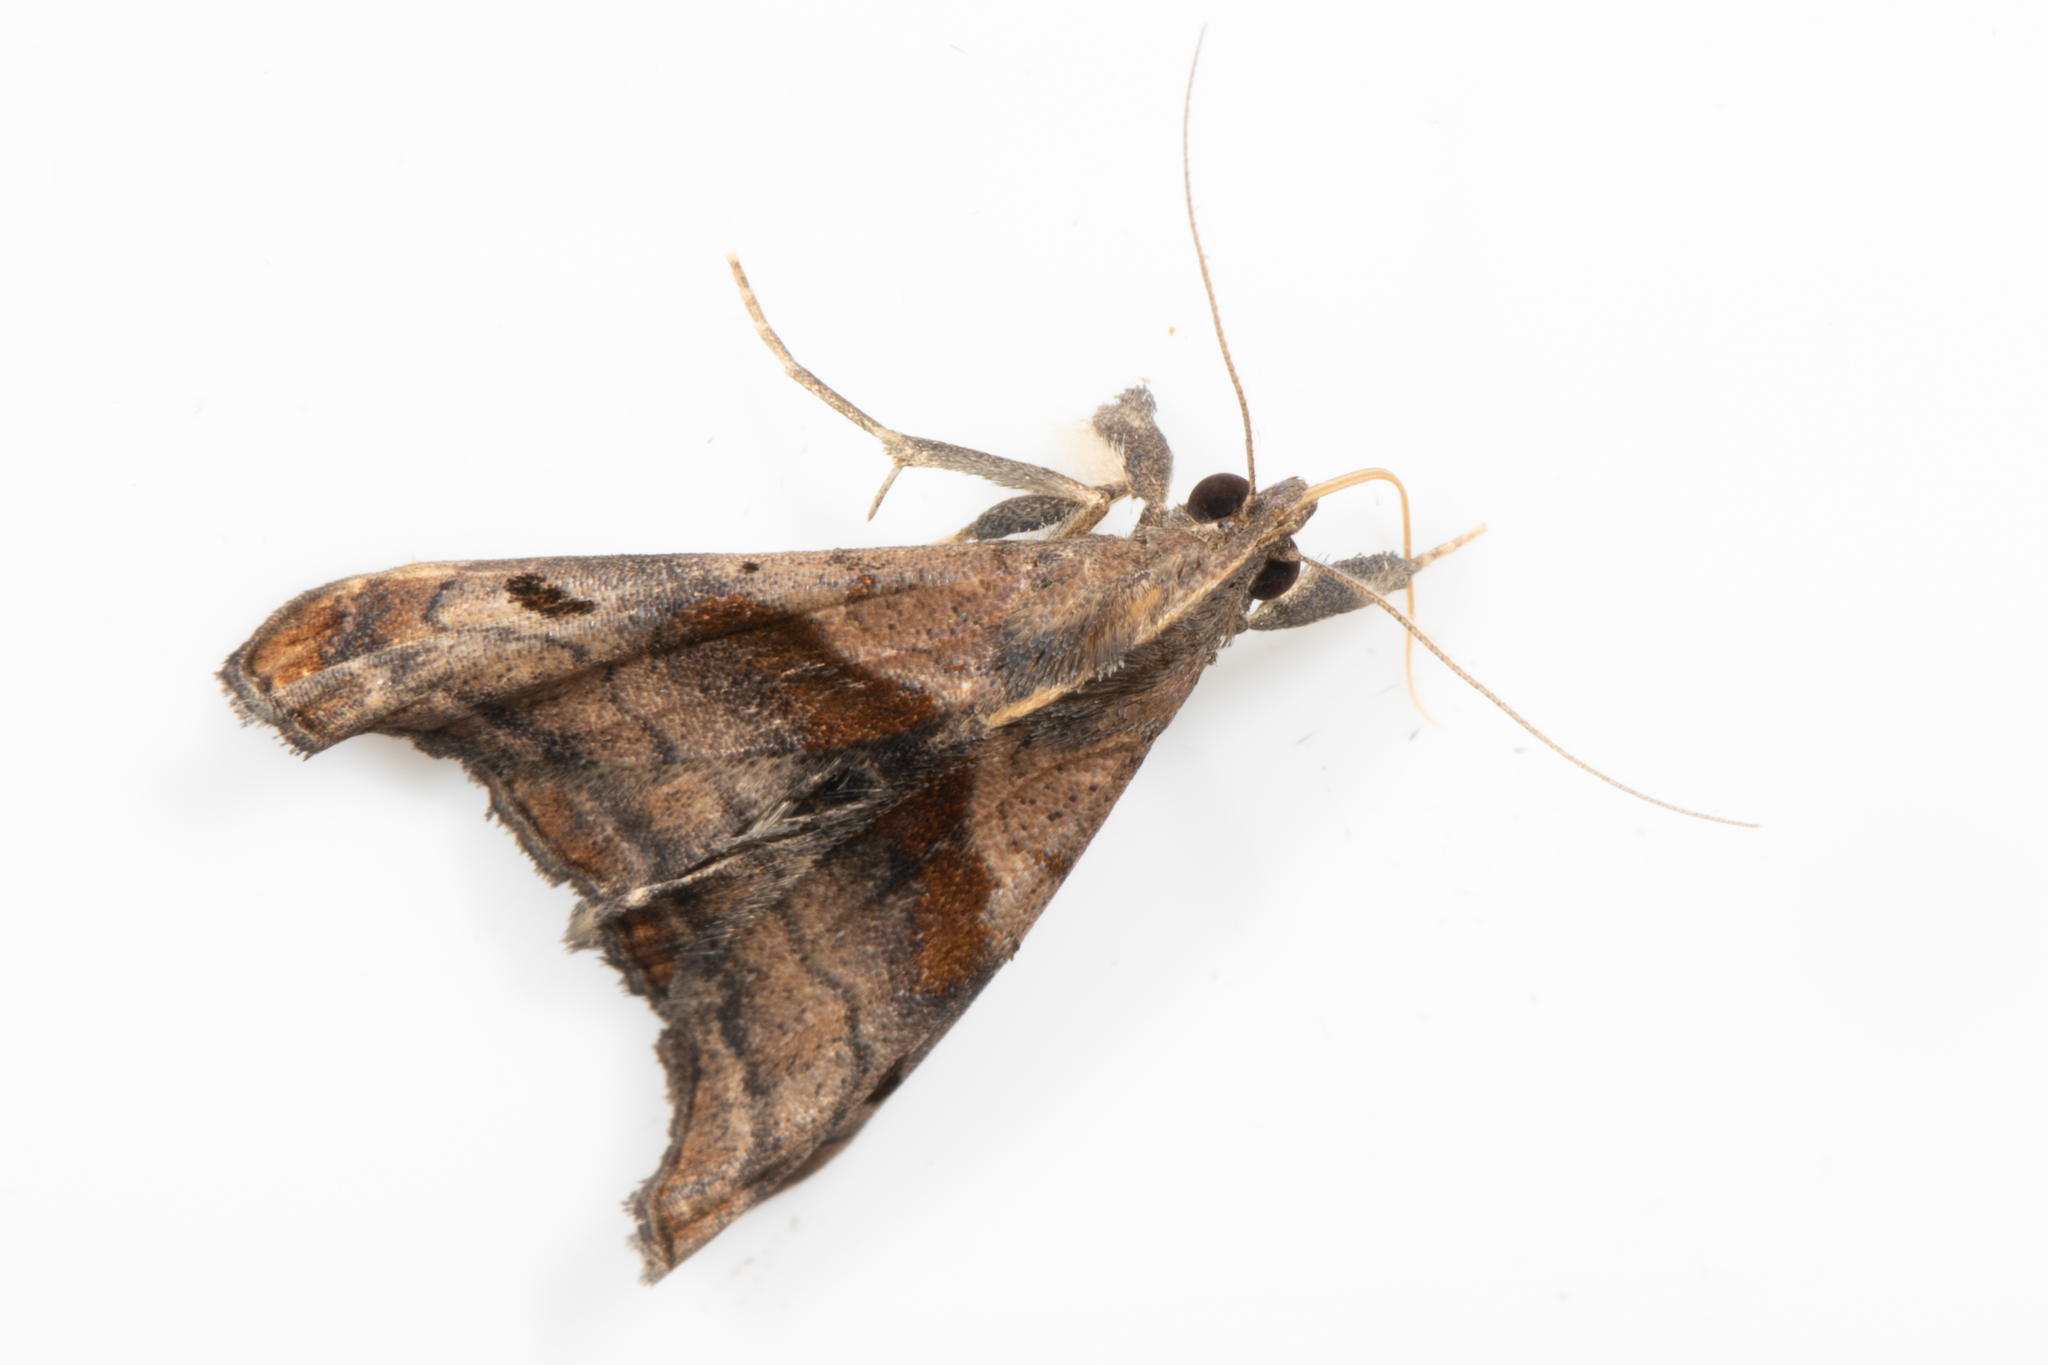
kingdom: Animalia
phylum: Arthropoda
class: Insecta
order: Lepidoptera
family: Erebidae
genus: Palthis
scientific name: Palthis angulalis
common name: Dark-spotted palthis moth
